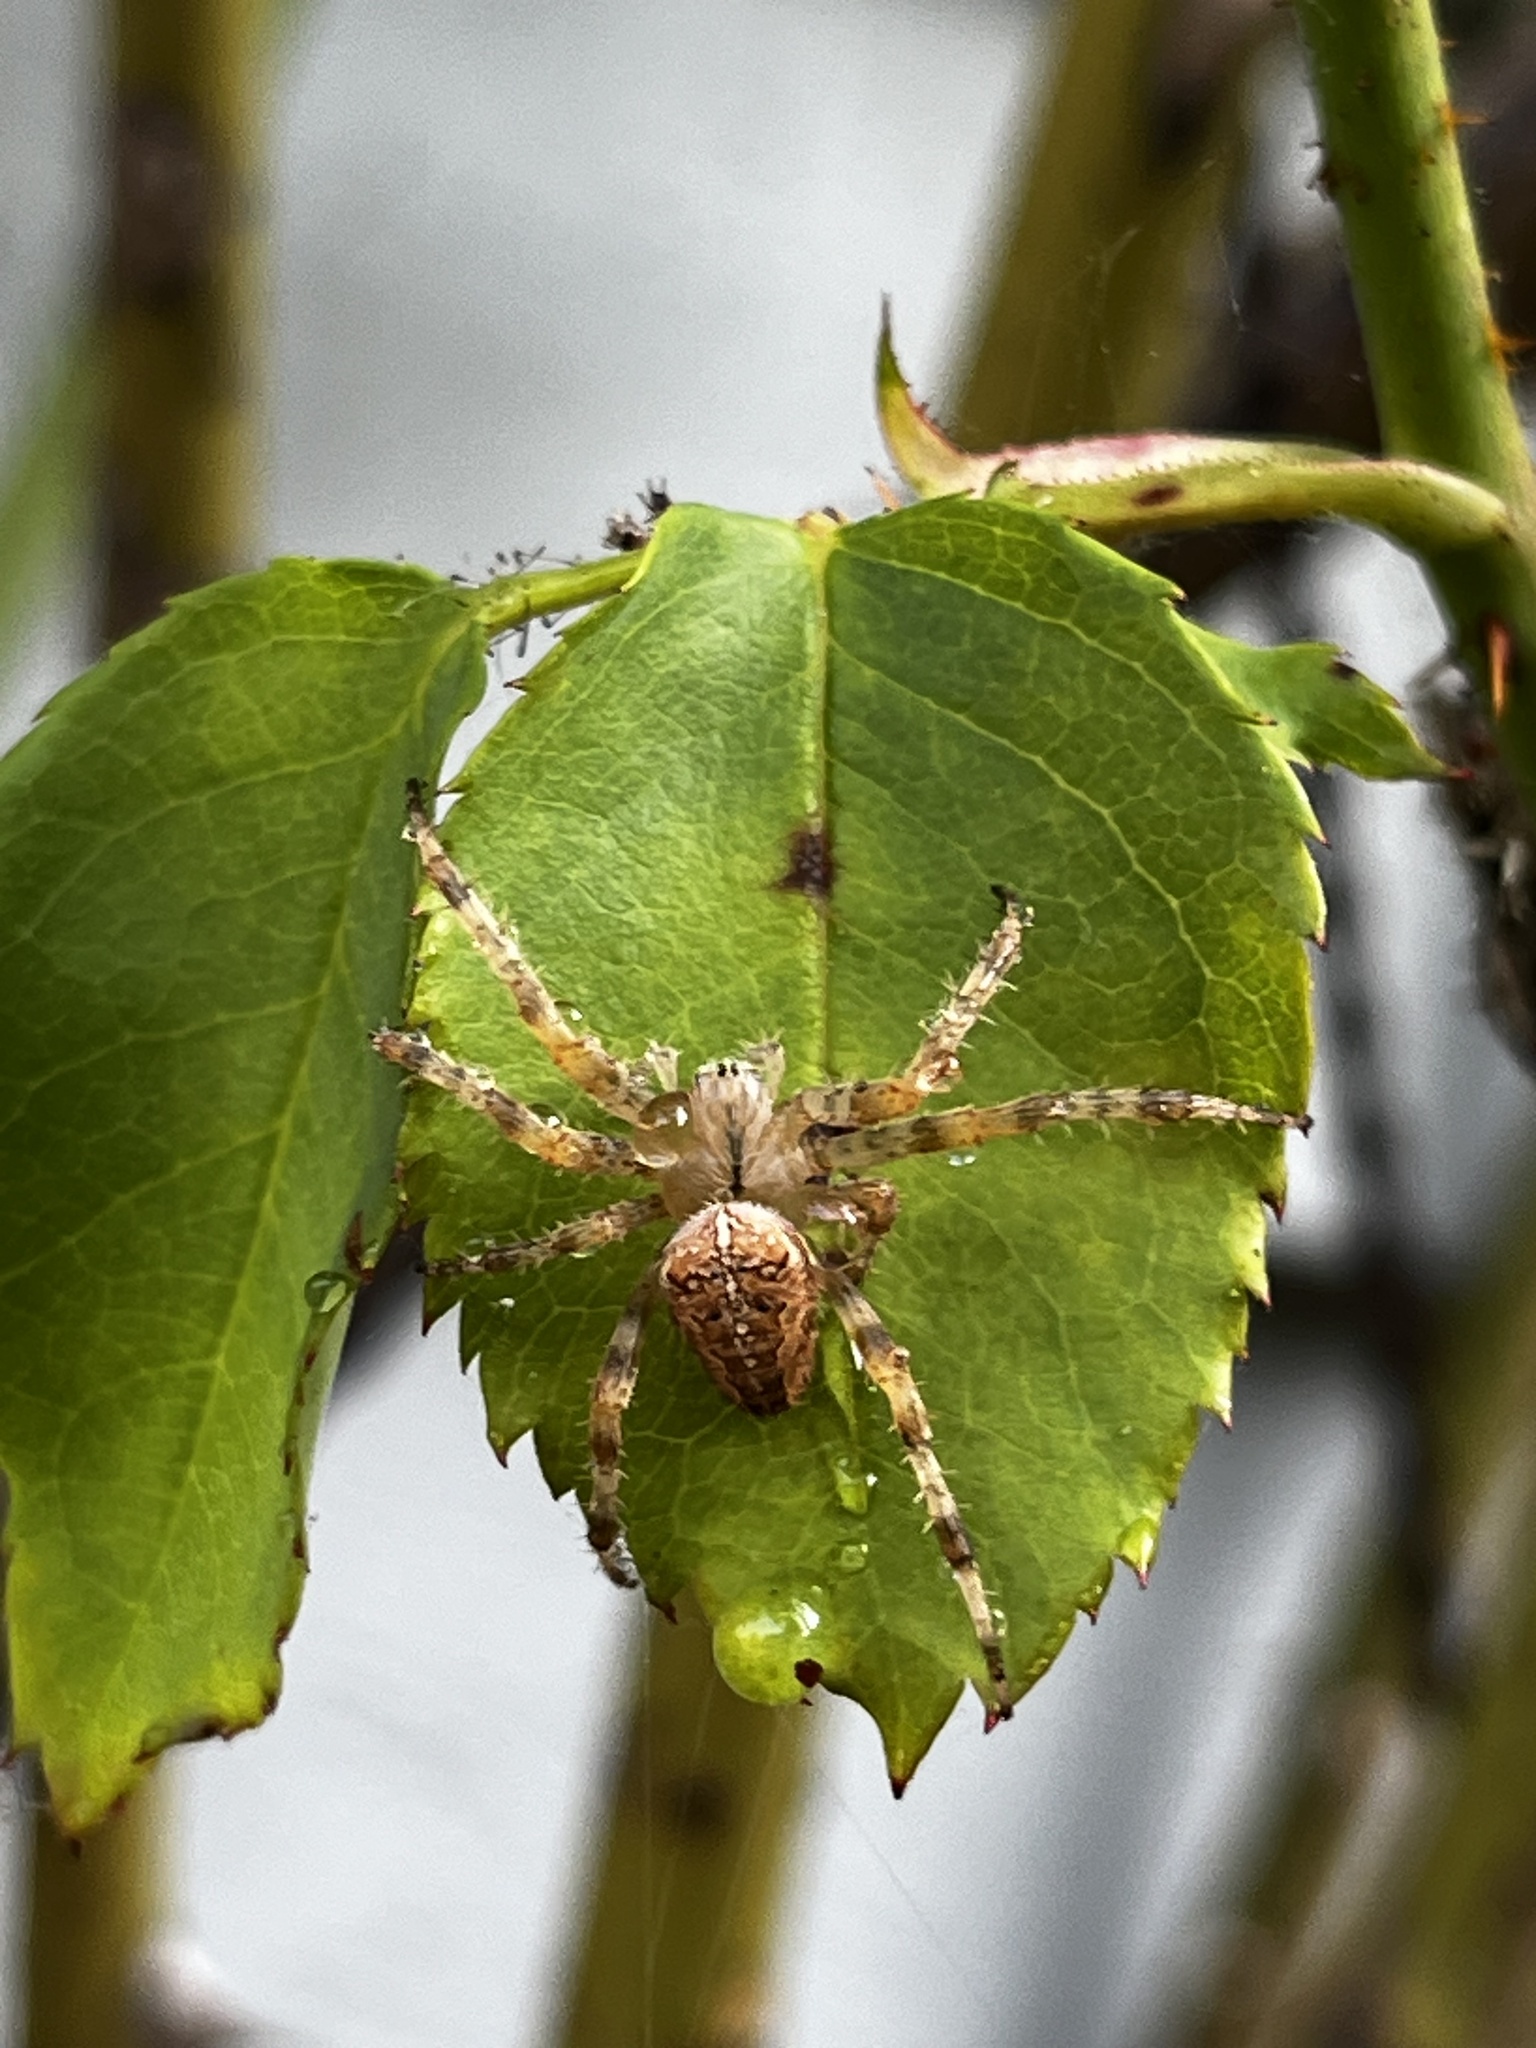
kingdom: Animalia
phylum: Arthropoda
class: Arachnida
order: Araneae
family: Araneidae
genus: Araneus
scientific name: Araneus diadematus
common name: Cross orbweaver
